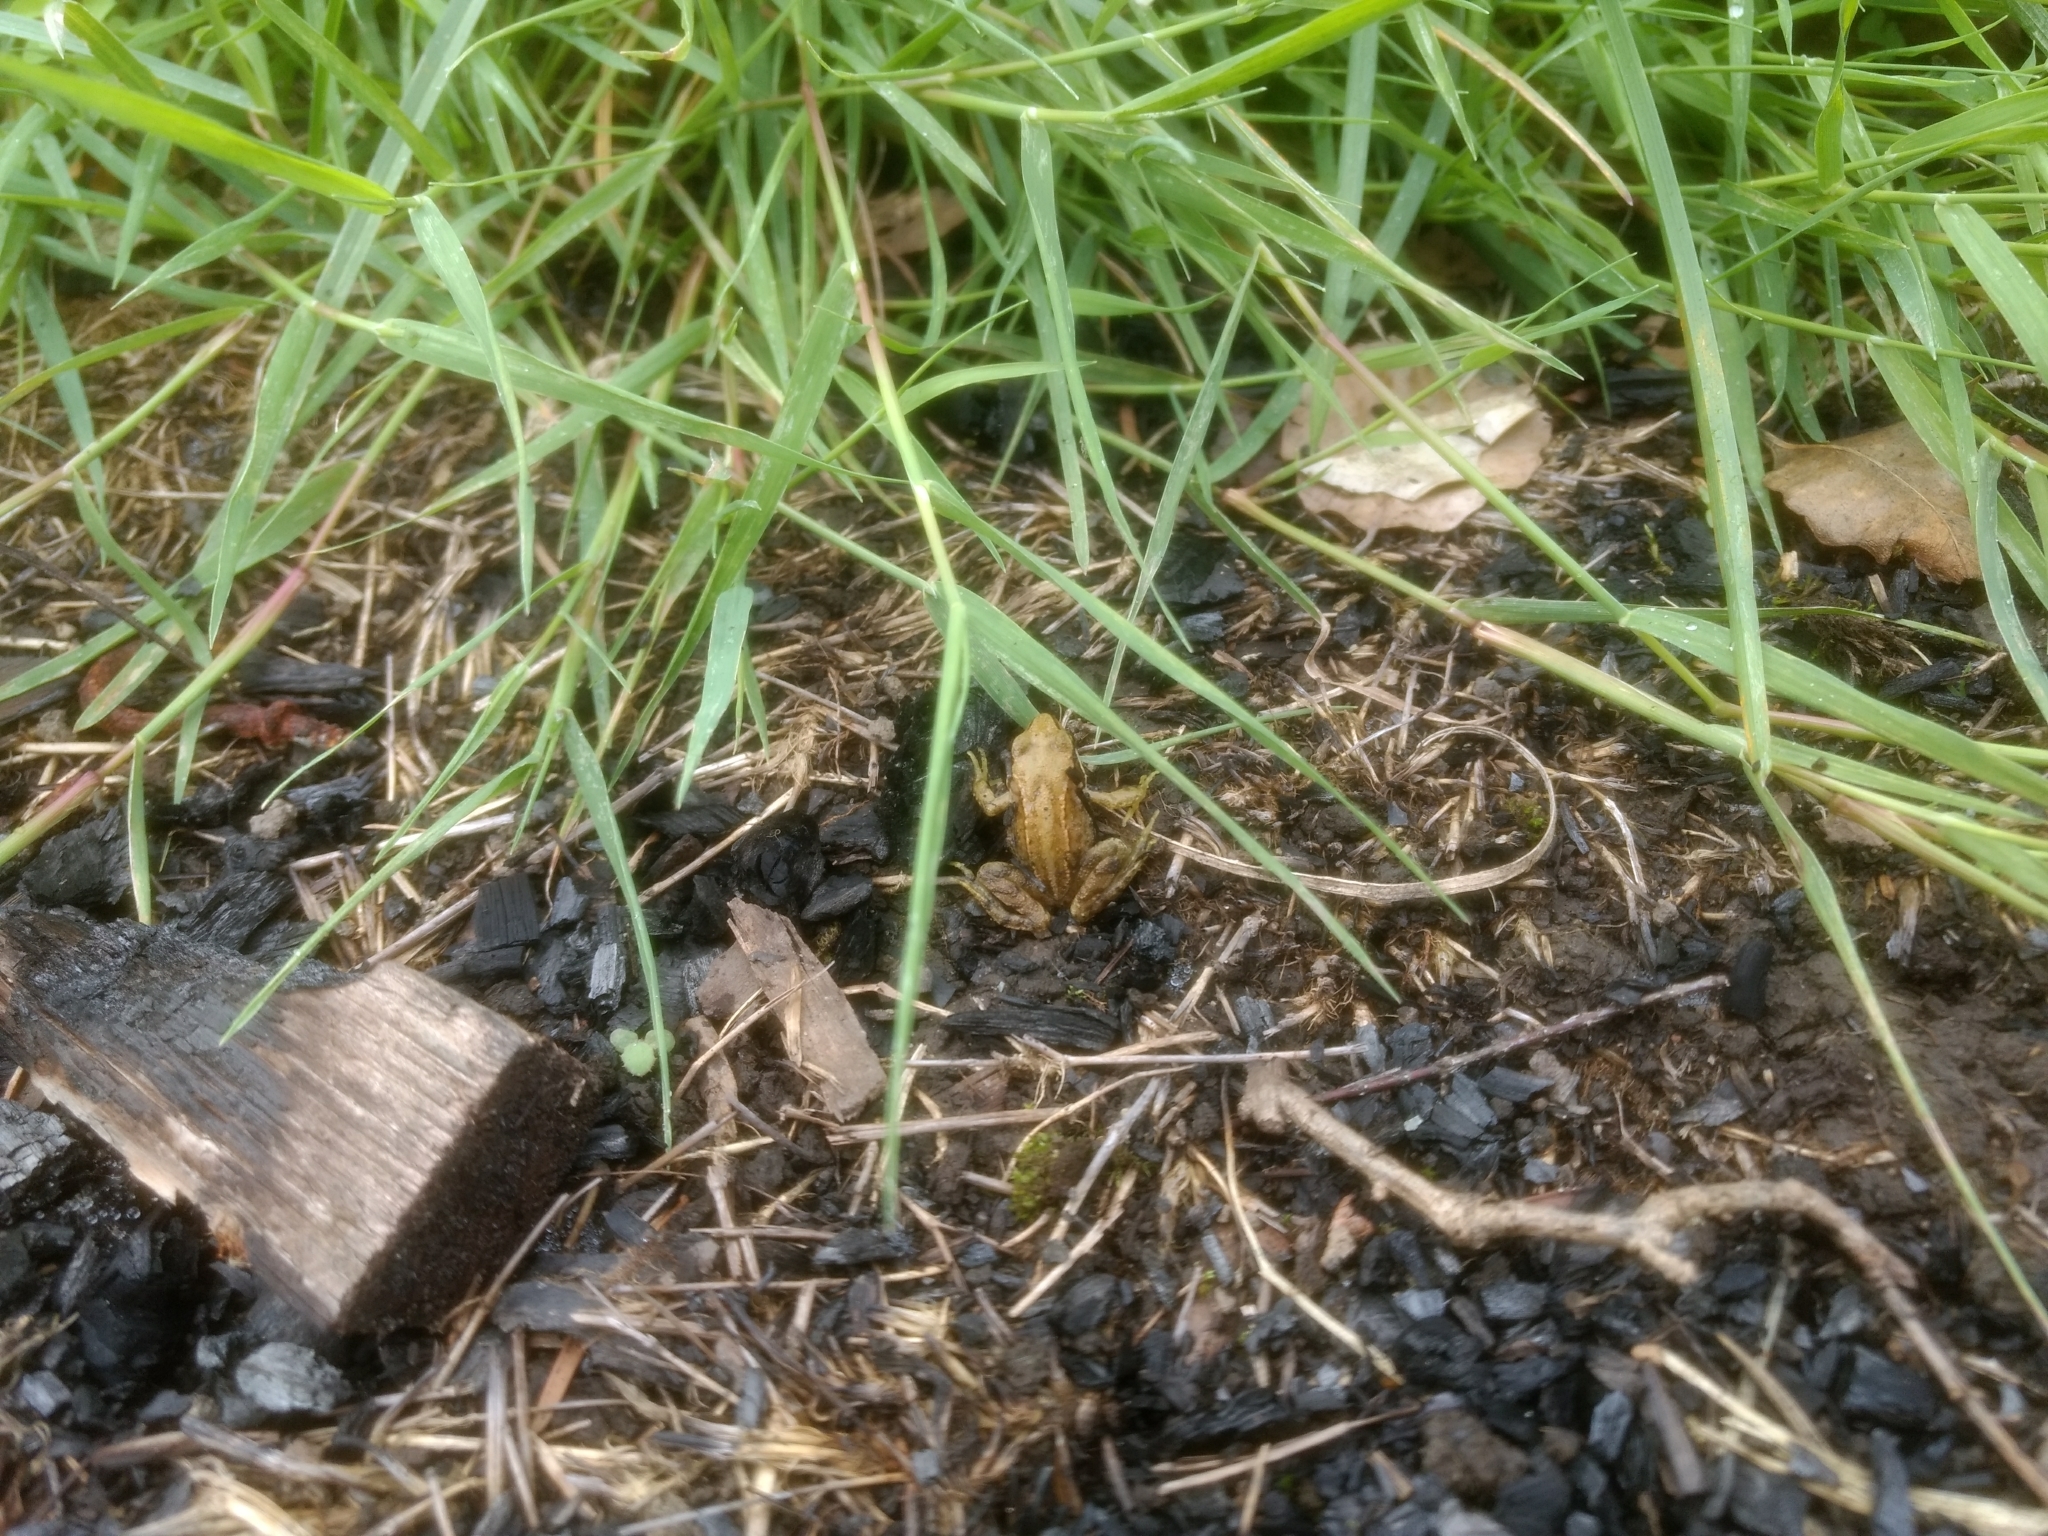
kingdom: Animalia
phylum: Chordata
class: Amphibia
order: Anura
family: Ranidae
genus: Rana
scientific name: Rana temporaria
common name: Common frog
